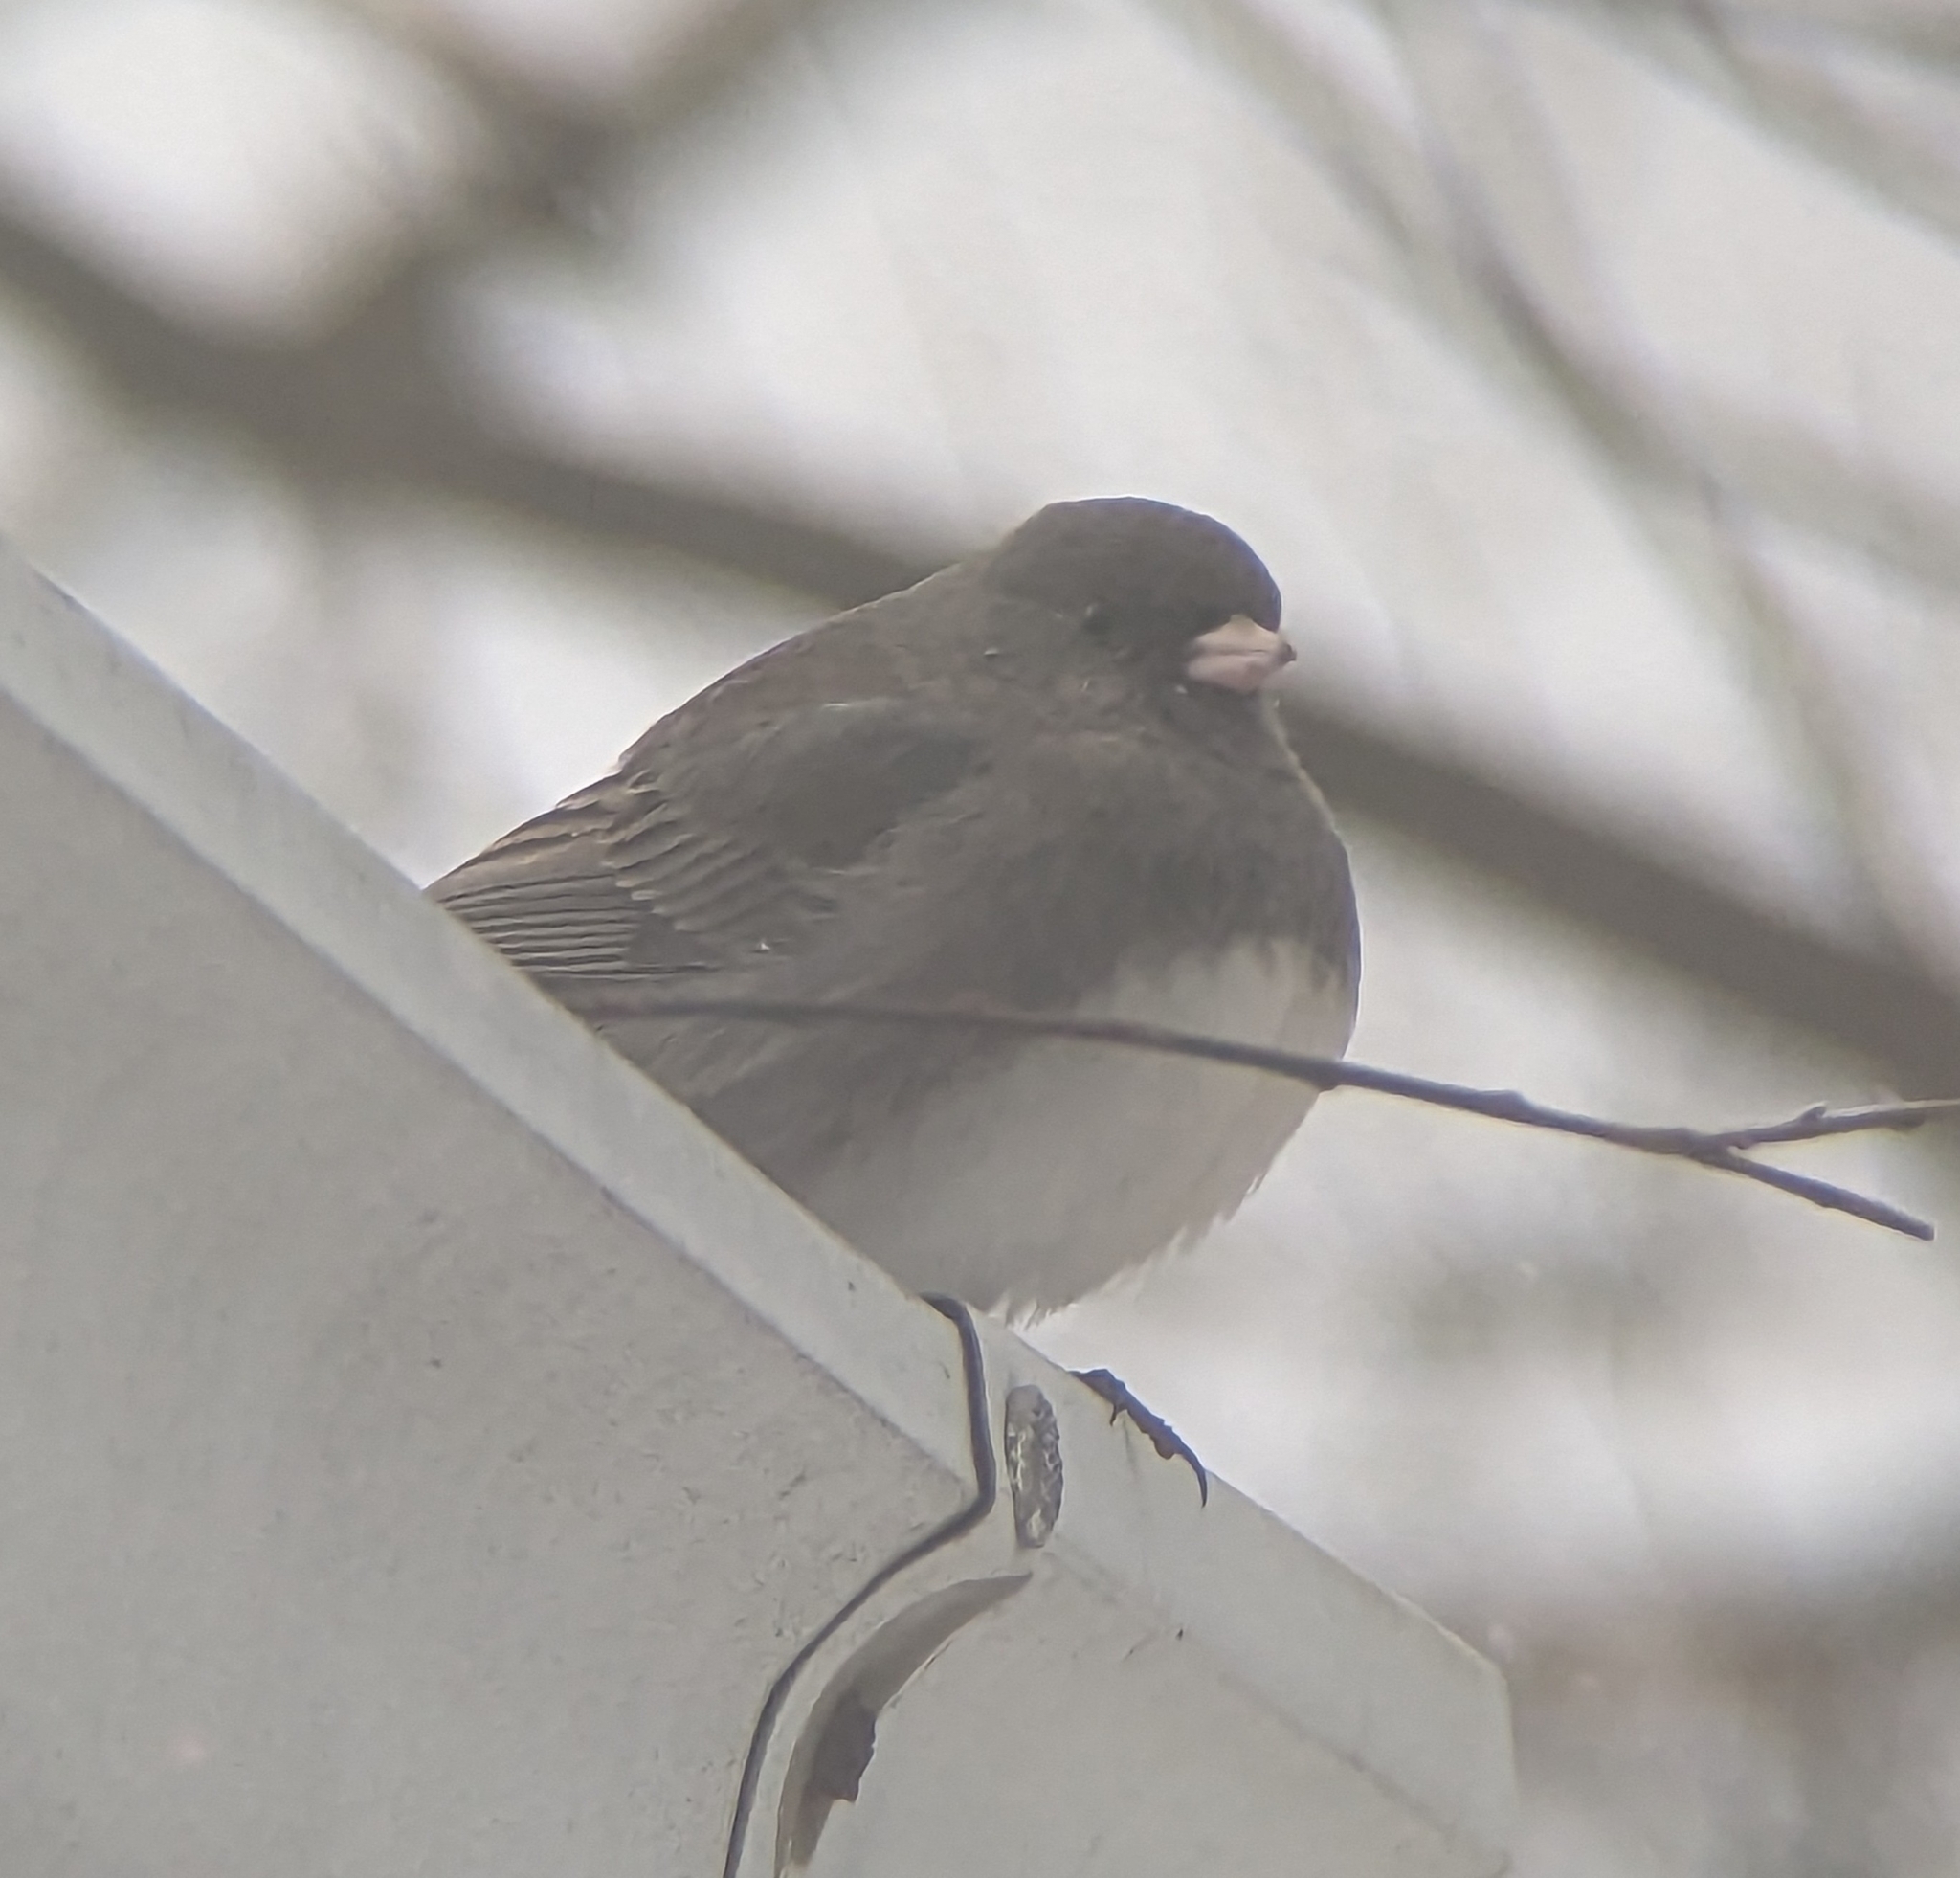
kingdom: Animalia
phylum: Chordata
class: Aves
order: Passeriformes
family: Passerellidae
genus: Junco
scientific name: Junco hyemalis
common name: Dark-eyed junco
